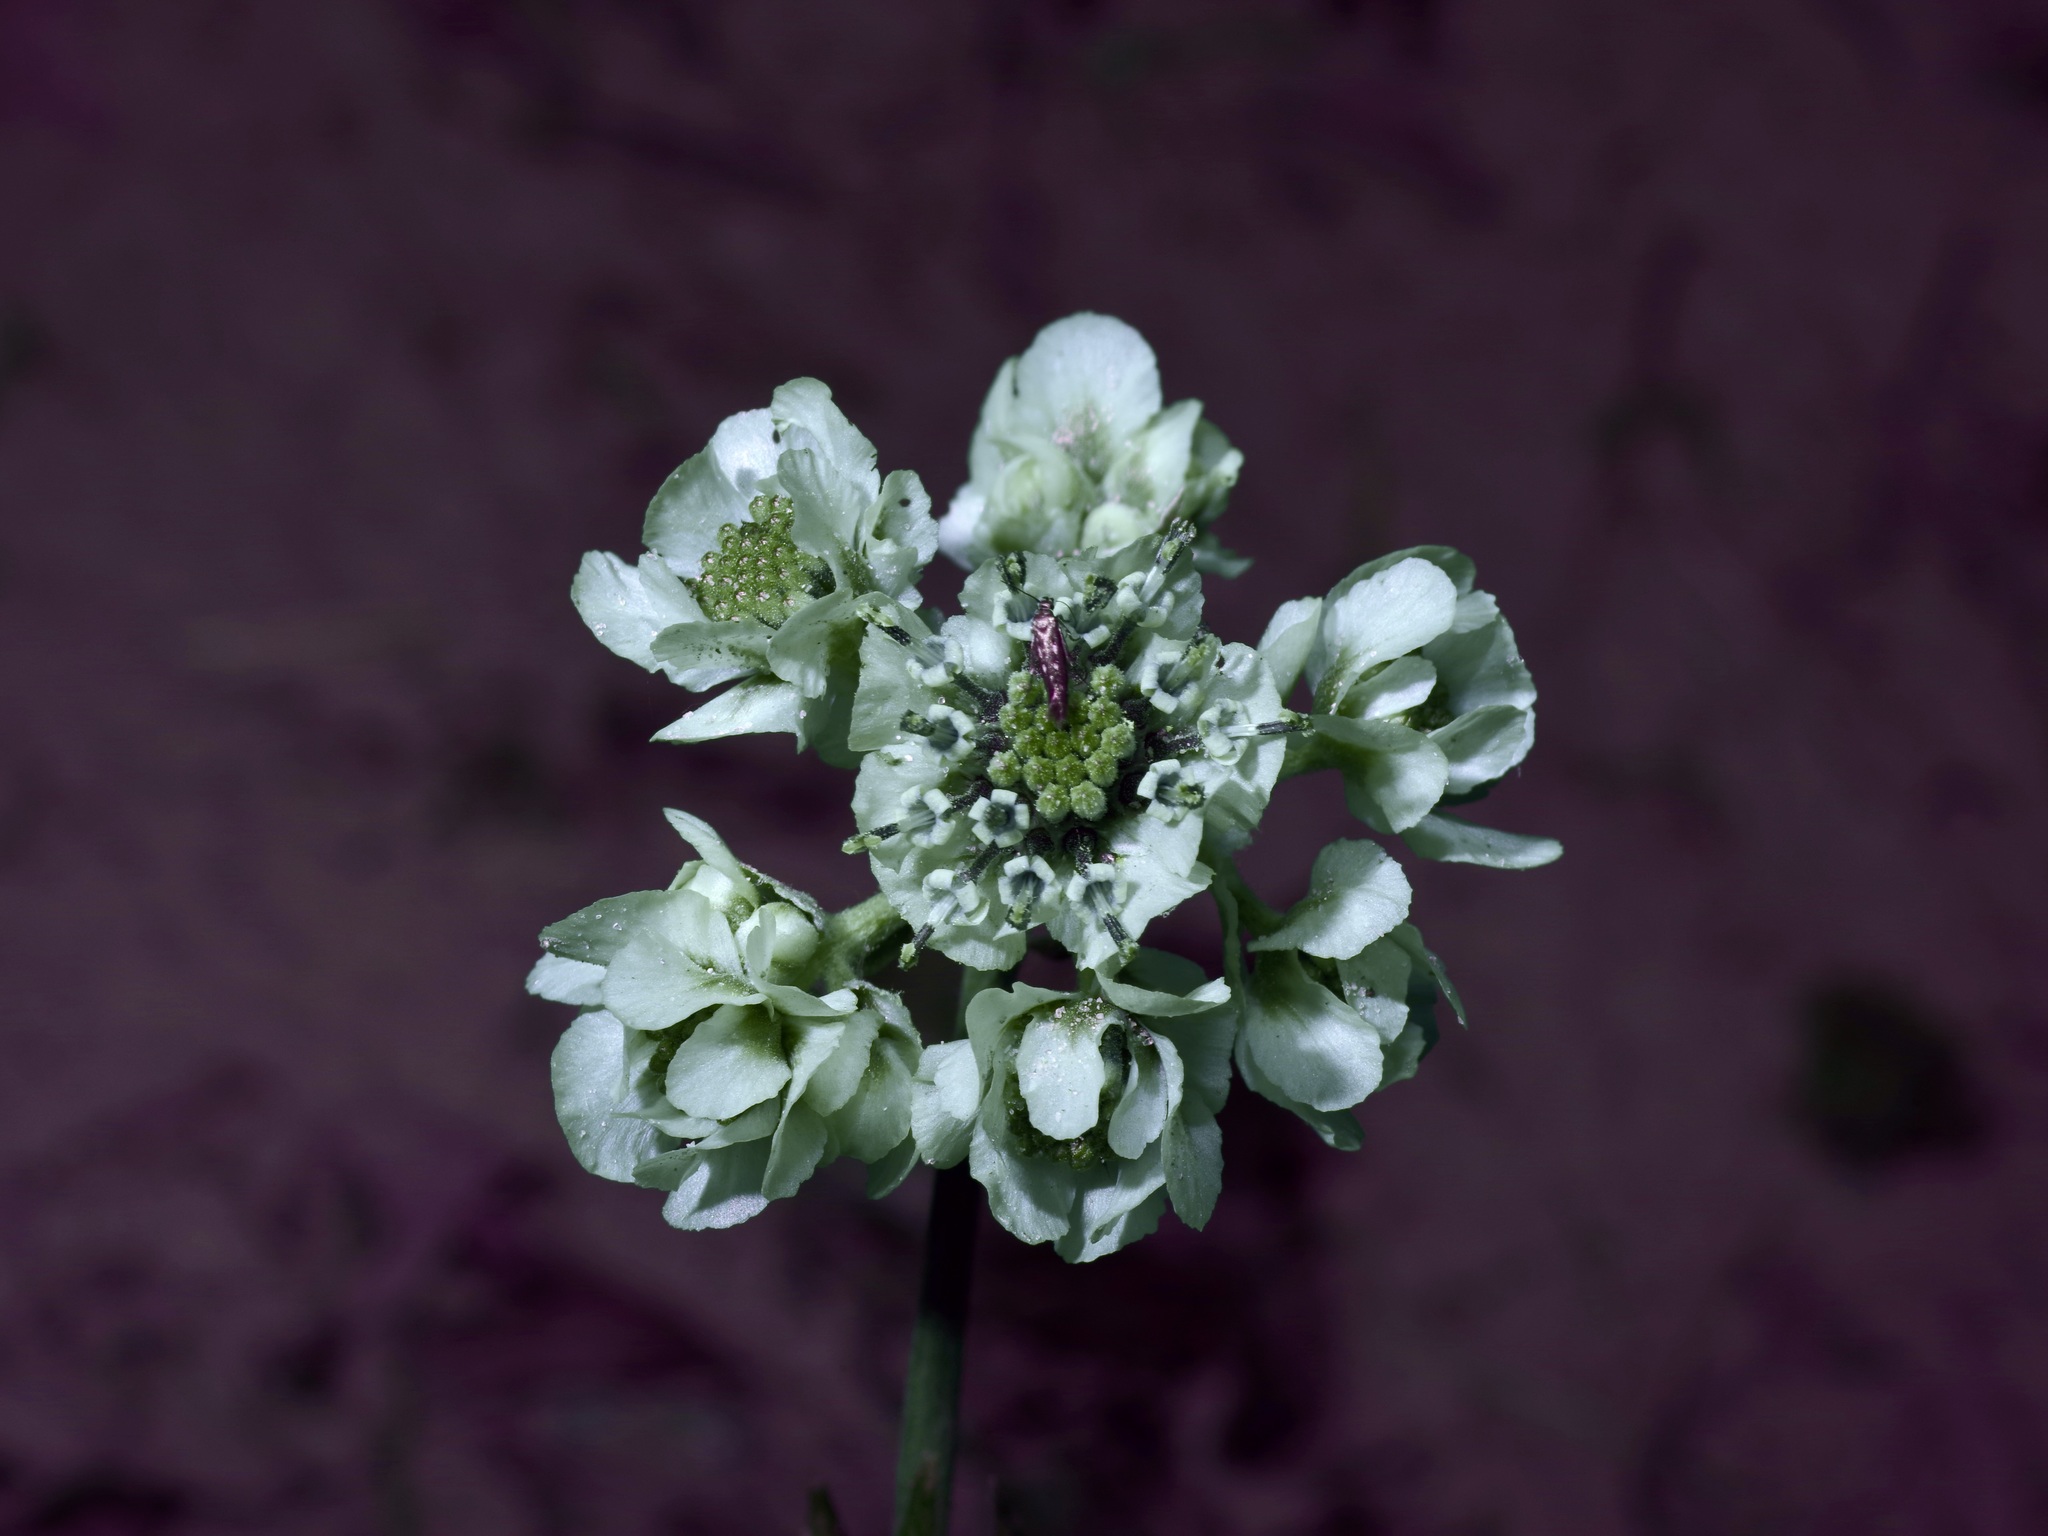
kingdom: Plantae
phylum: Tracheophyta
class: Magnoliopsida
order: Asterales
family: Asteraceae
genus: Hymenopappus
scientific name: Hymenopappus artemisiifolius
